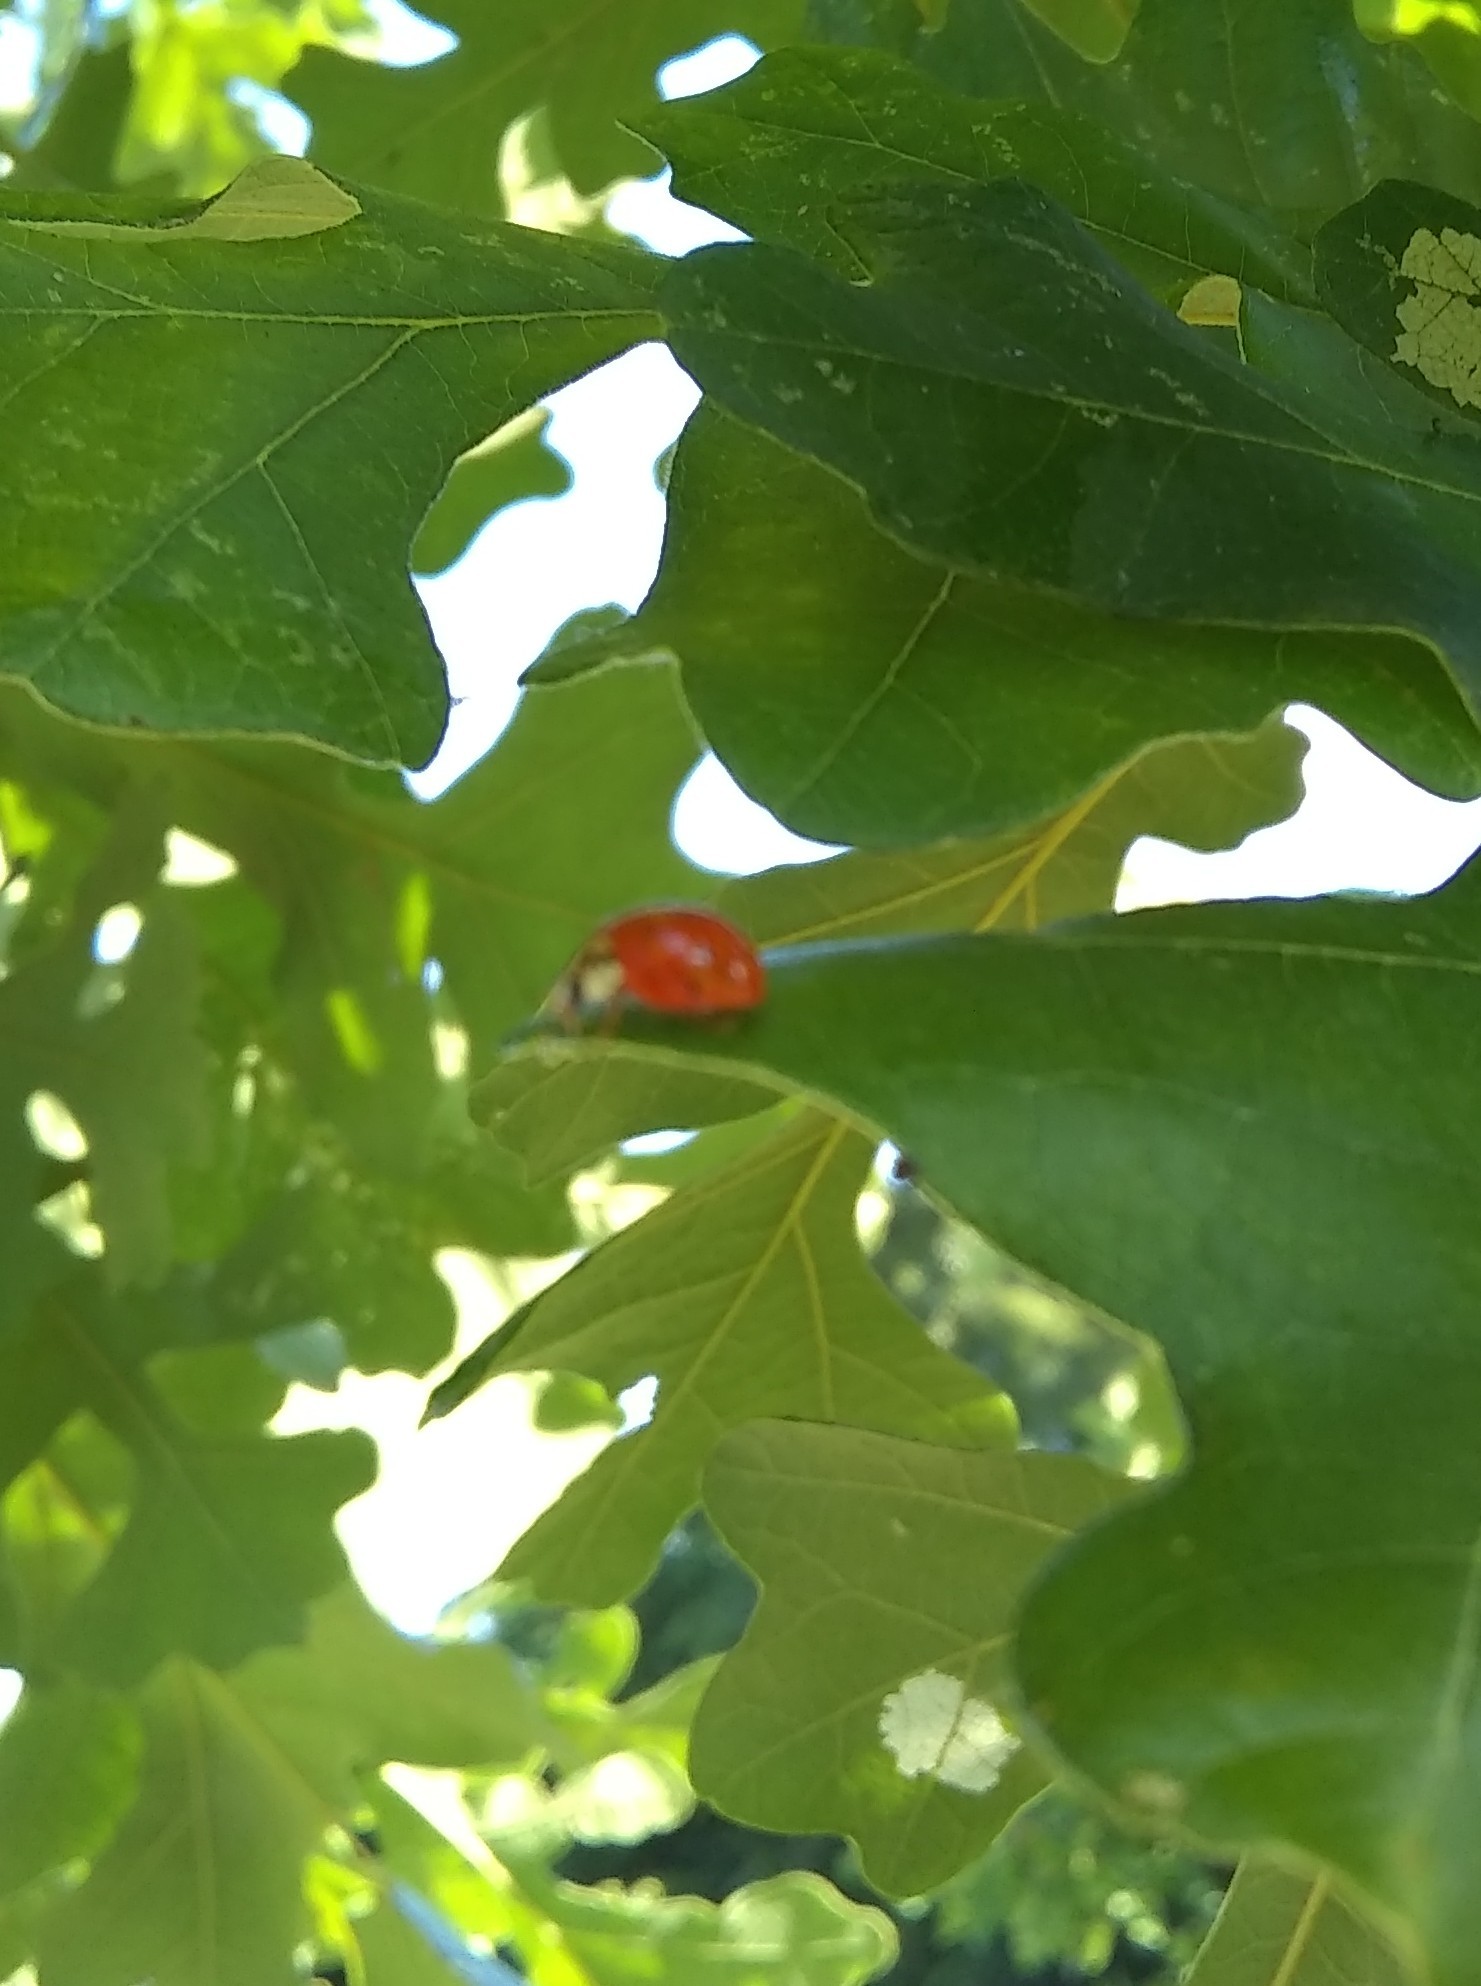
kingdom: Animalia
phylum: Arthropoda
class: Insecta
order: Coleoptera
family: Coccinellidae
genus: Harmonia
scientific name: Harmonia axyridis
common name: Harlequin ladybird
